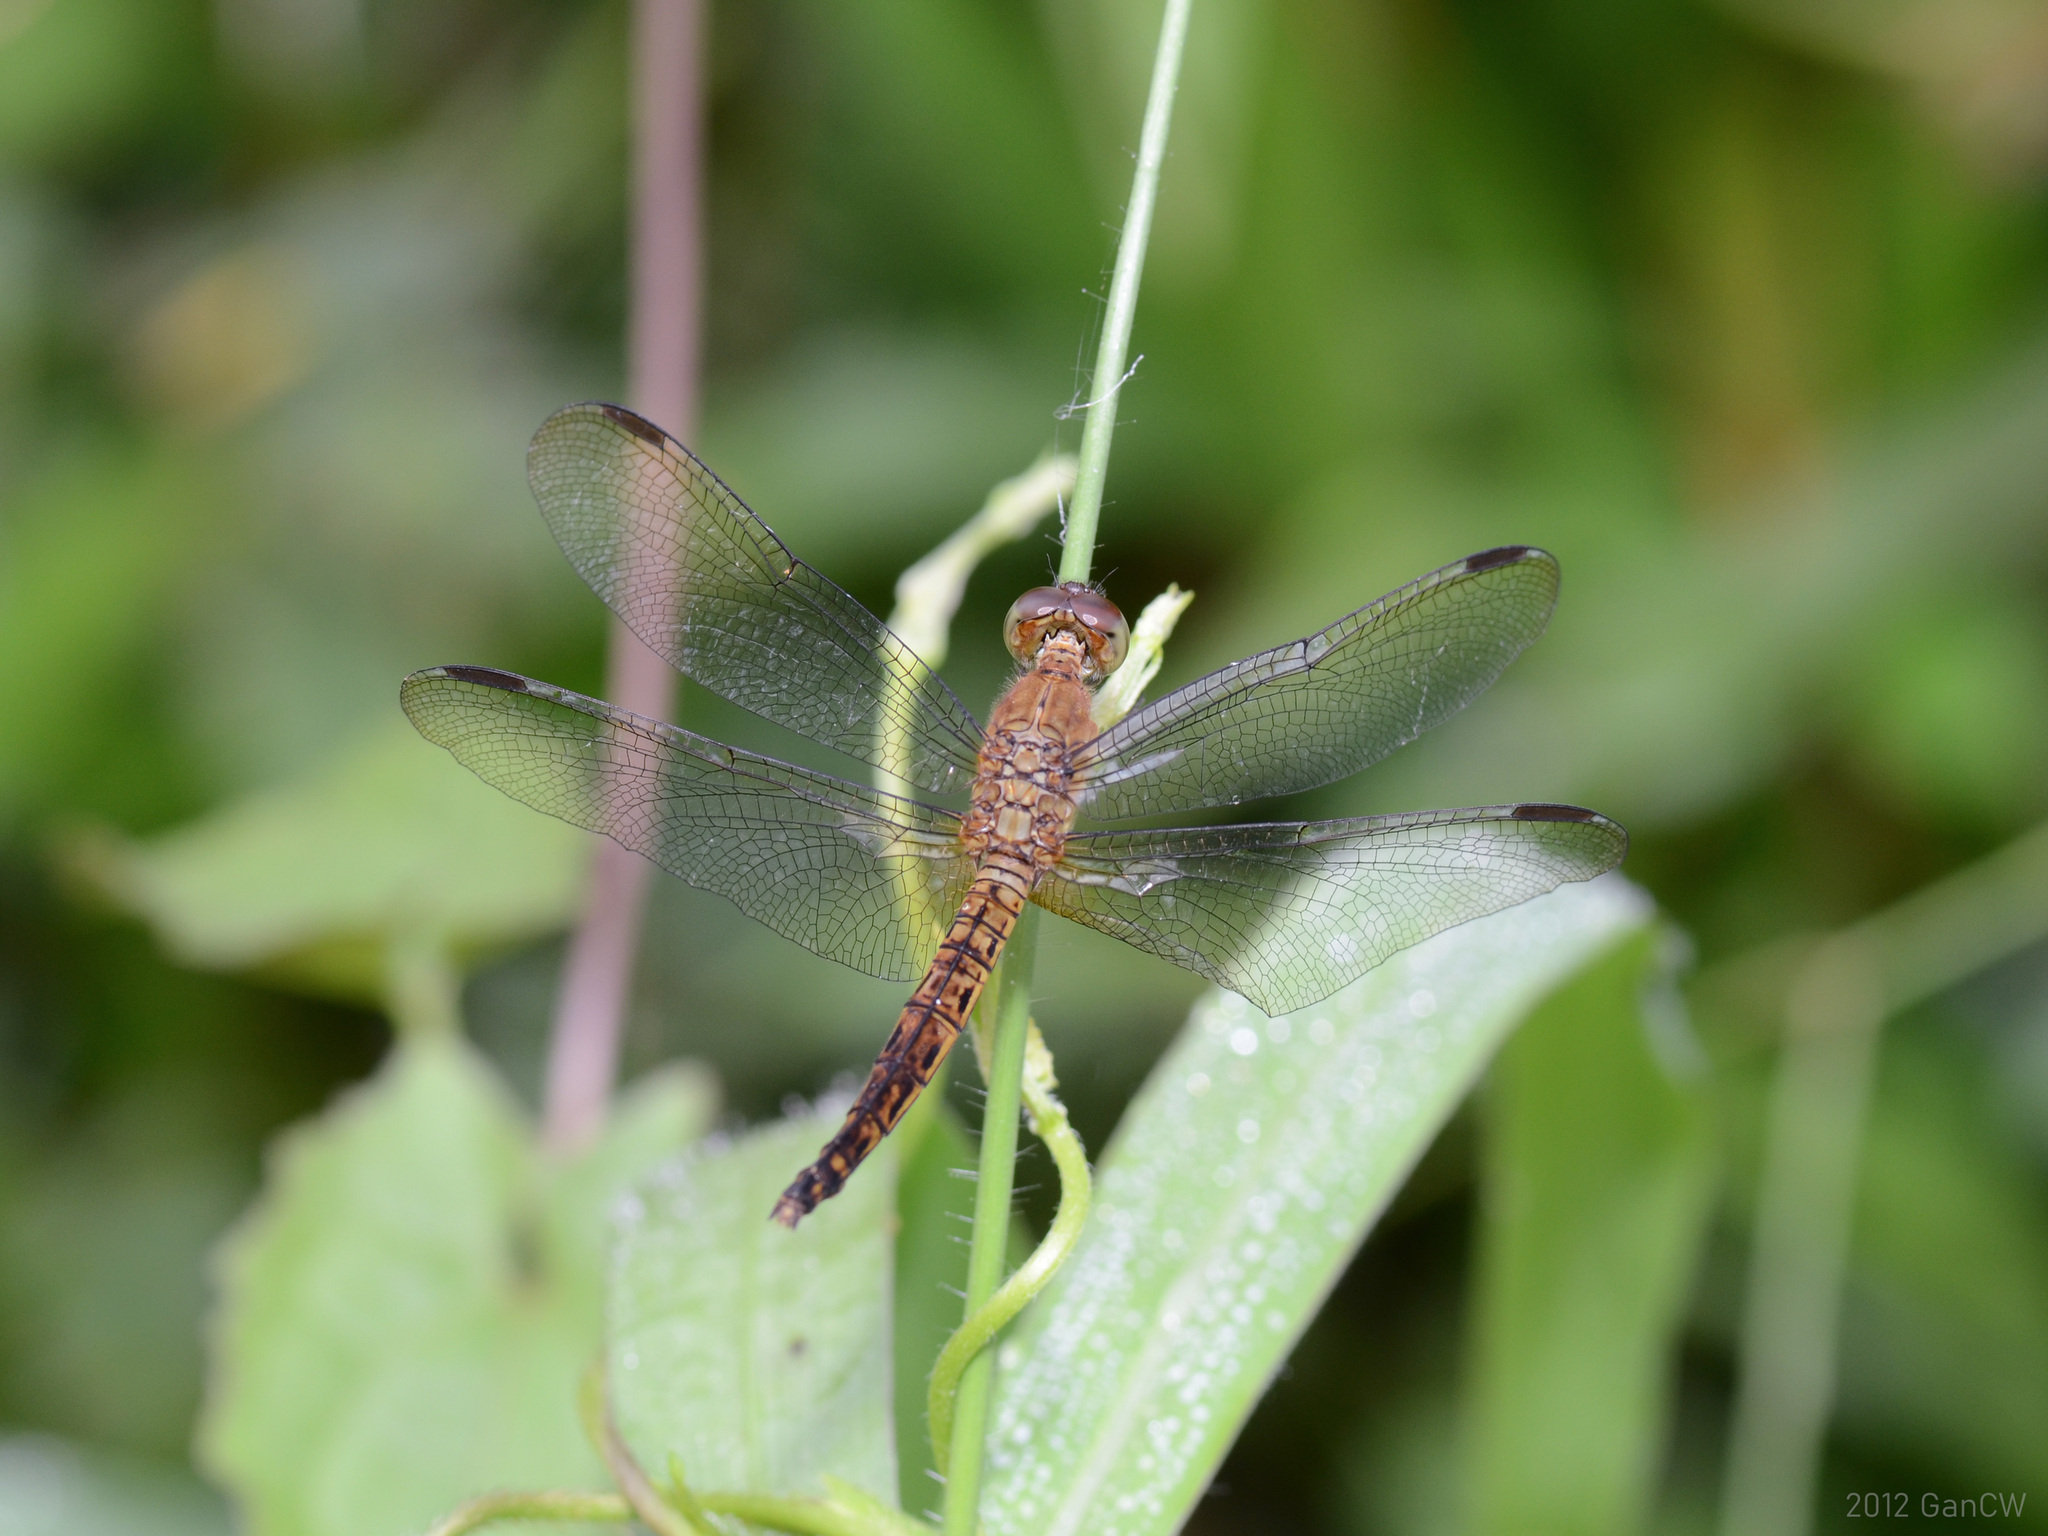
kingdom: Animalia
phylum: Arthropoda
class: Insecta
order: Odonata
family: Libellulidae
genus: Neurothemis
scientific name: Neurothemis fluctuans
